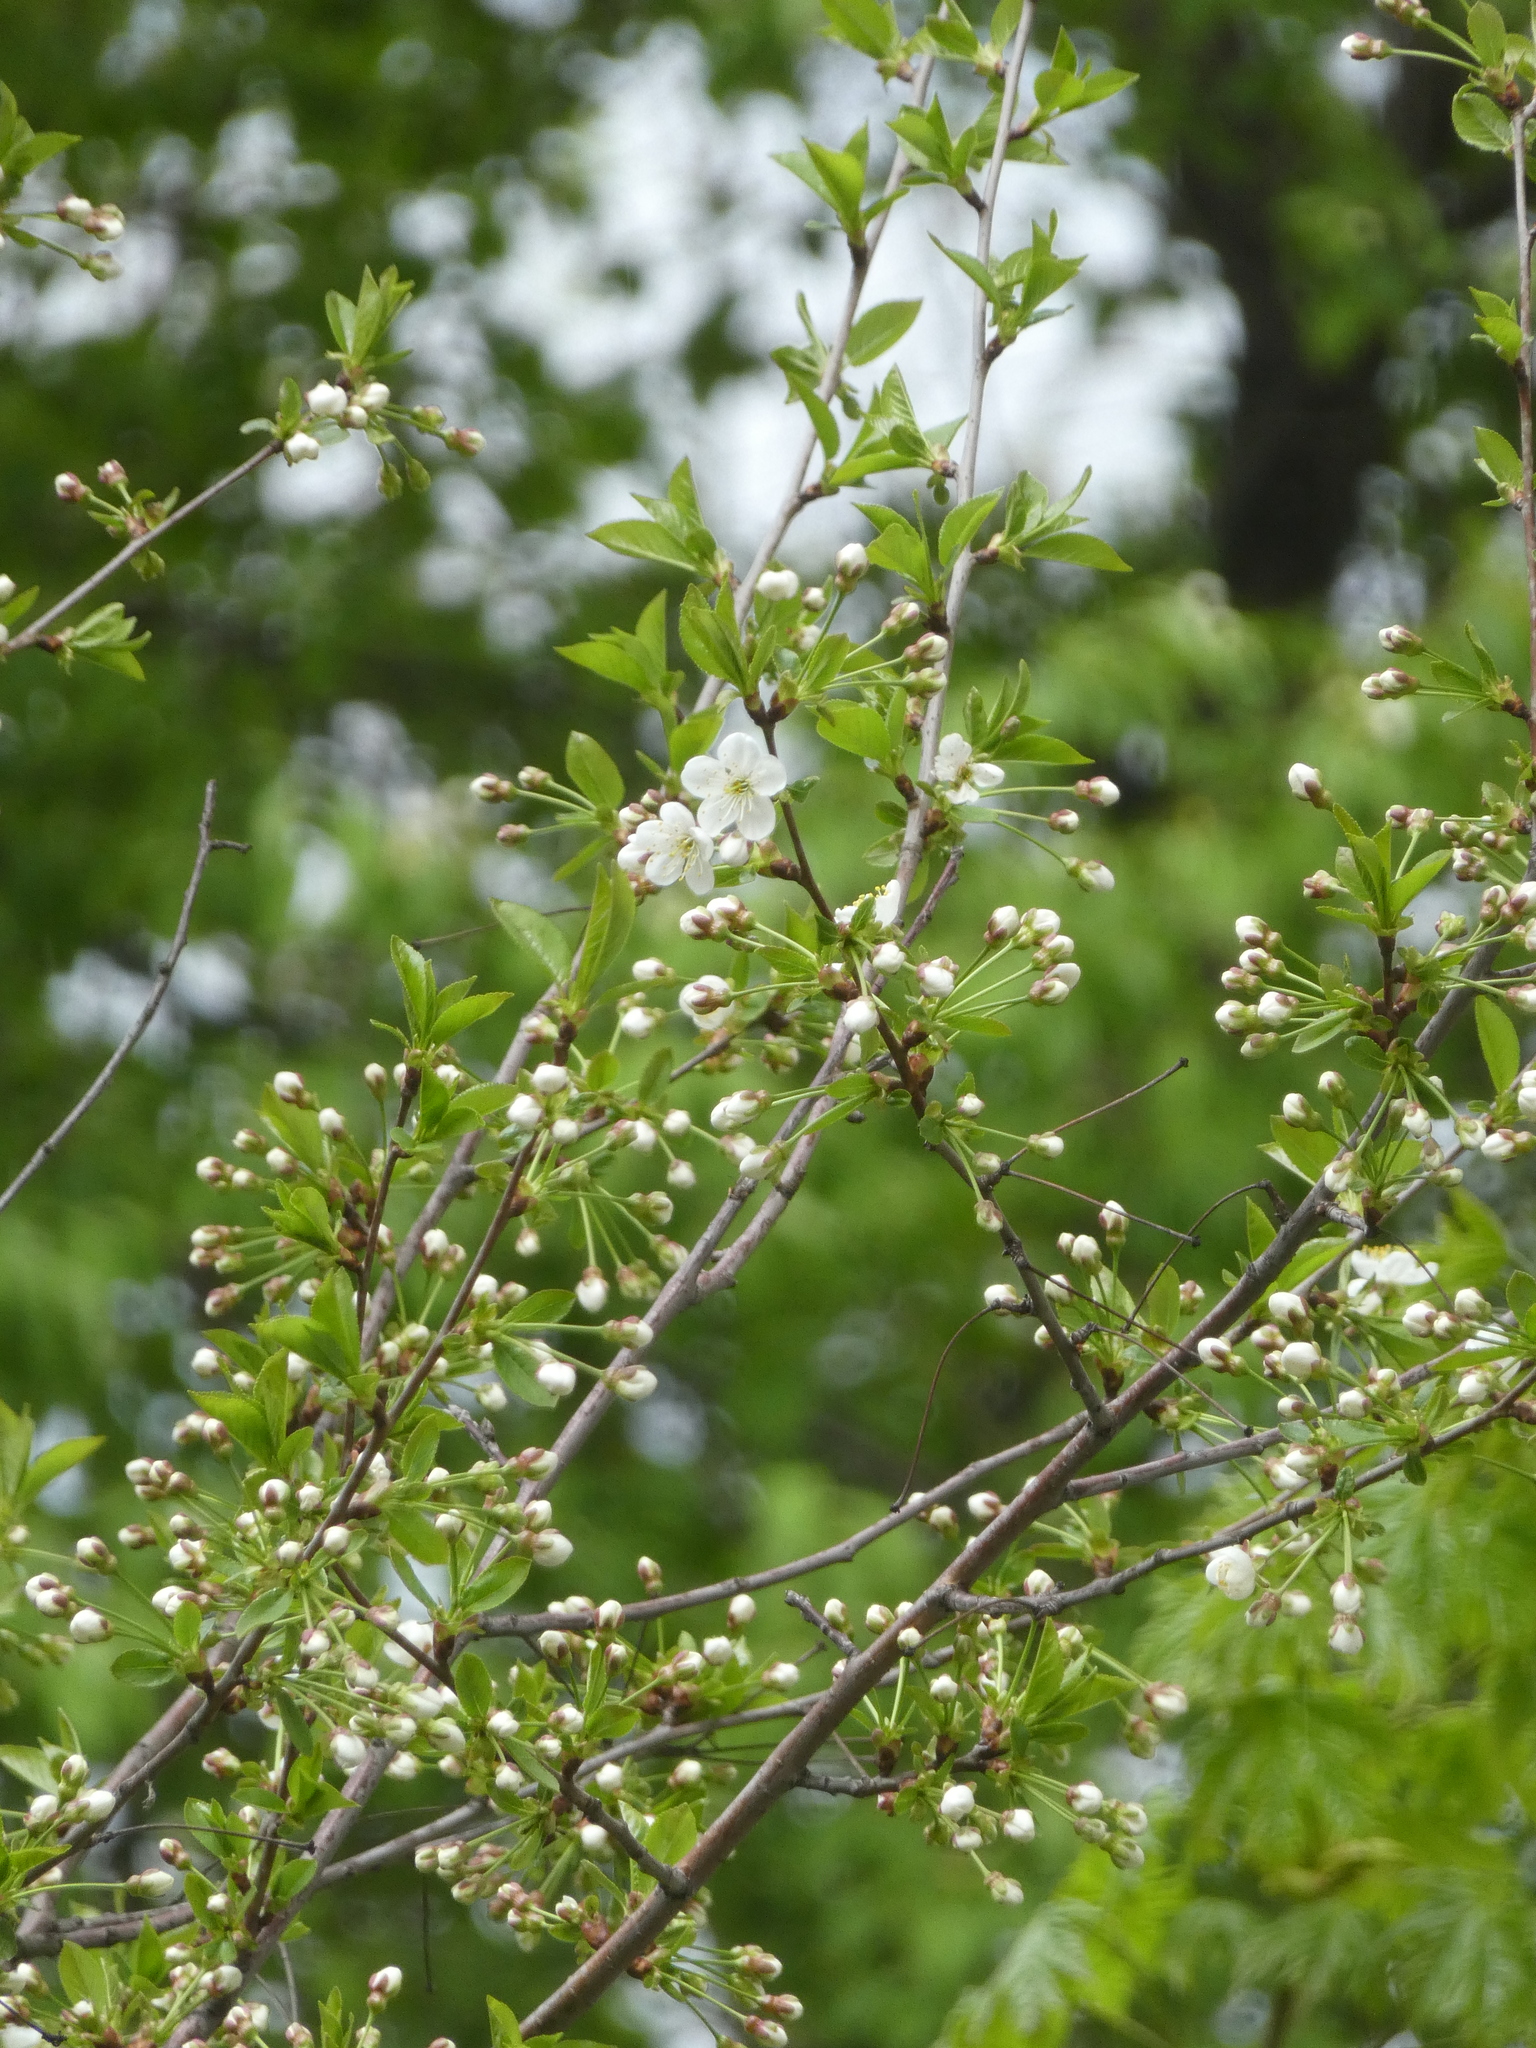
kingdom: Plantae
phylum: Tracheophyta
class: Magnoliopsida
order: Rosales
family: Rosaceae
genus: Prunus
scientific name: Prunus cerasus
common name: Morello cherry
